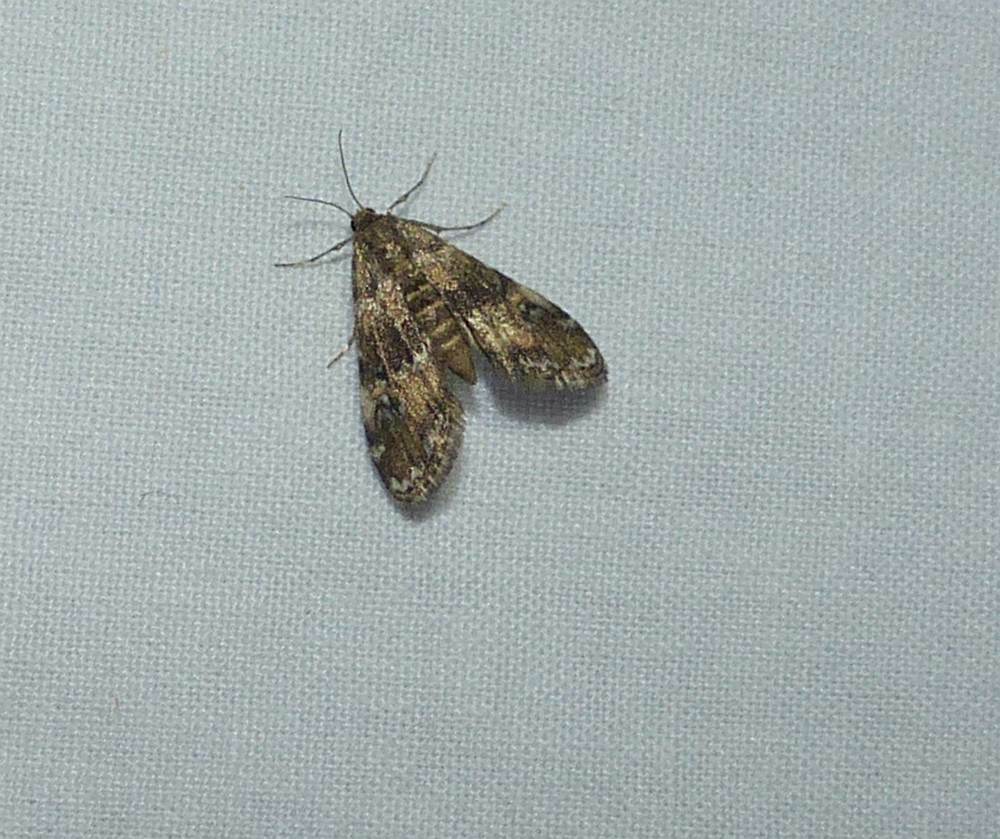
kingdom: Animalia
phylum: Arthropoda
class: Insecta
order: Lepidoptera
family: Crambidae
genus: Elophila
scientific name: Elophila obliteralis
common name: Waterlily leafcutter moth
